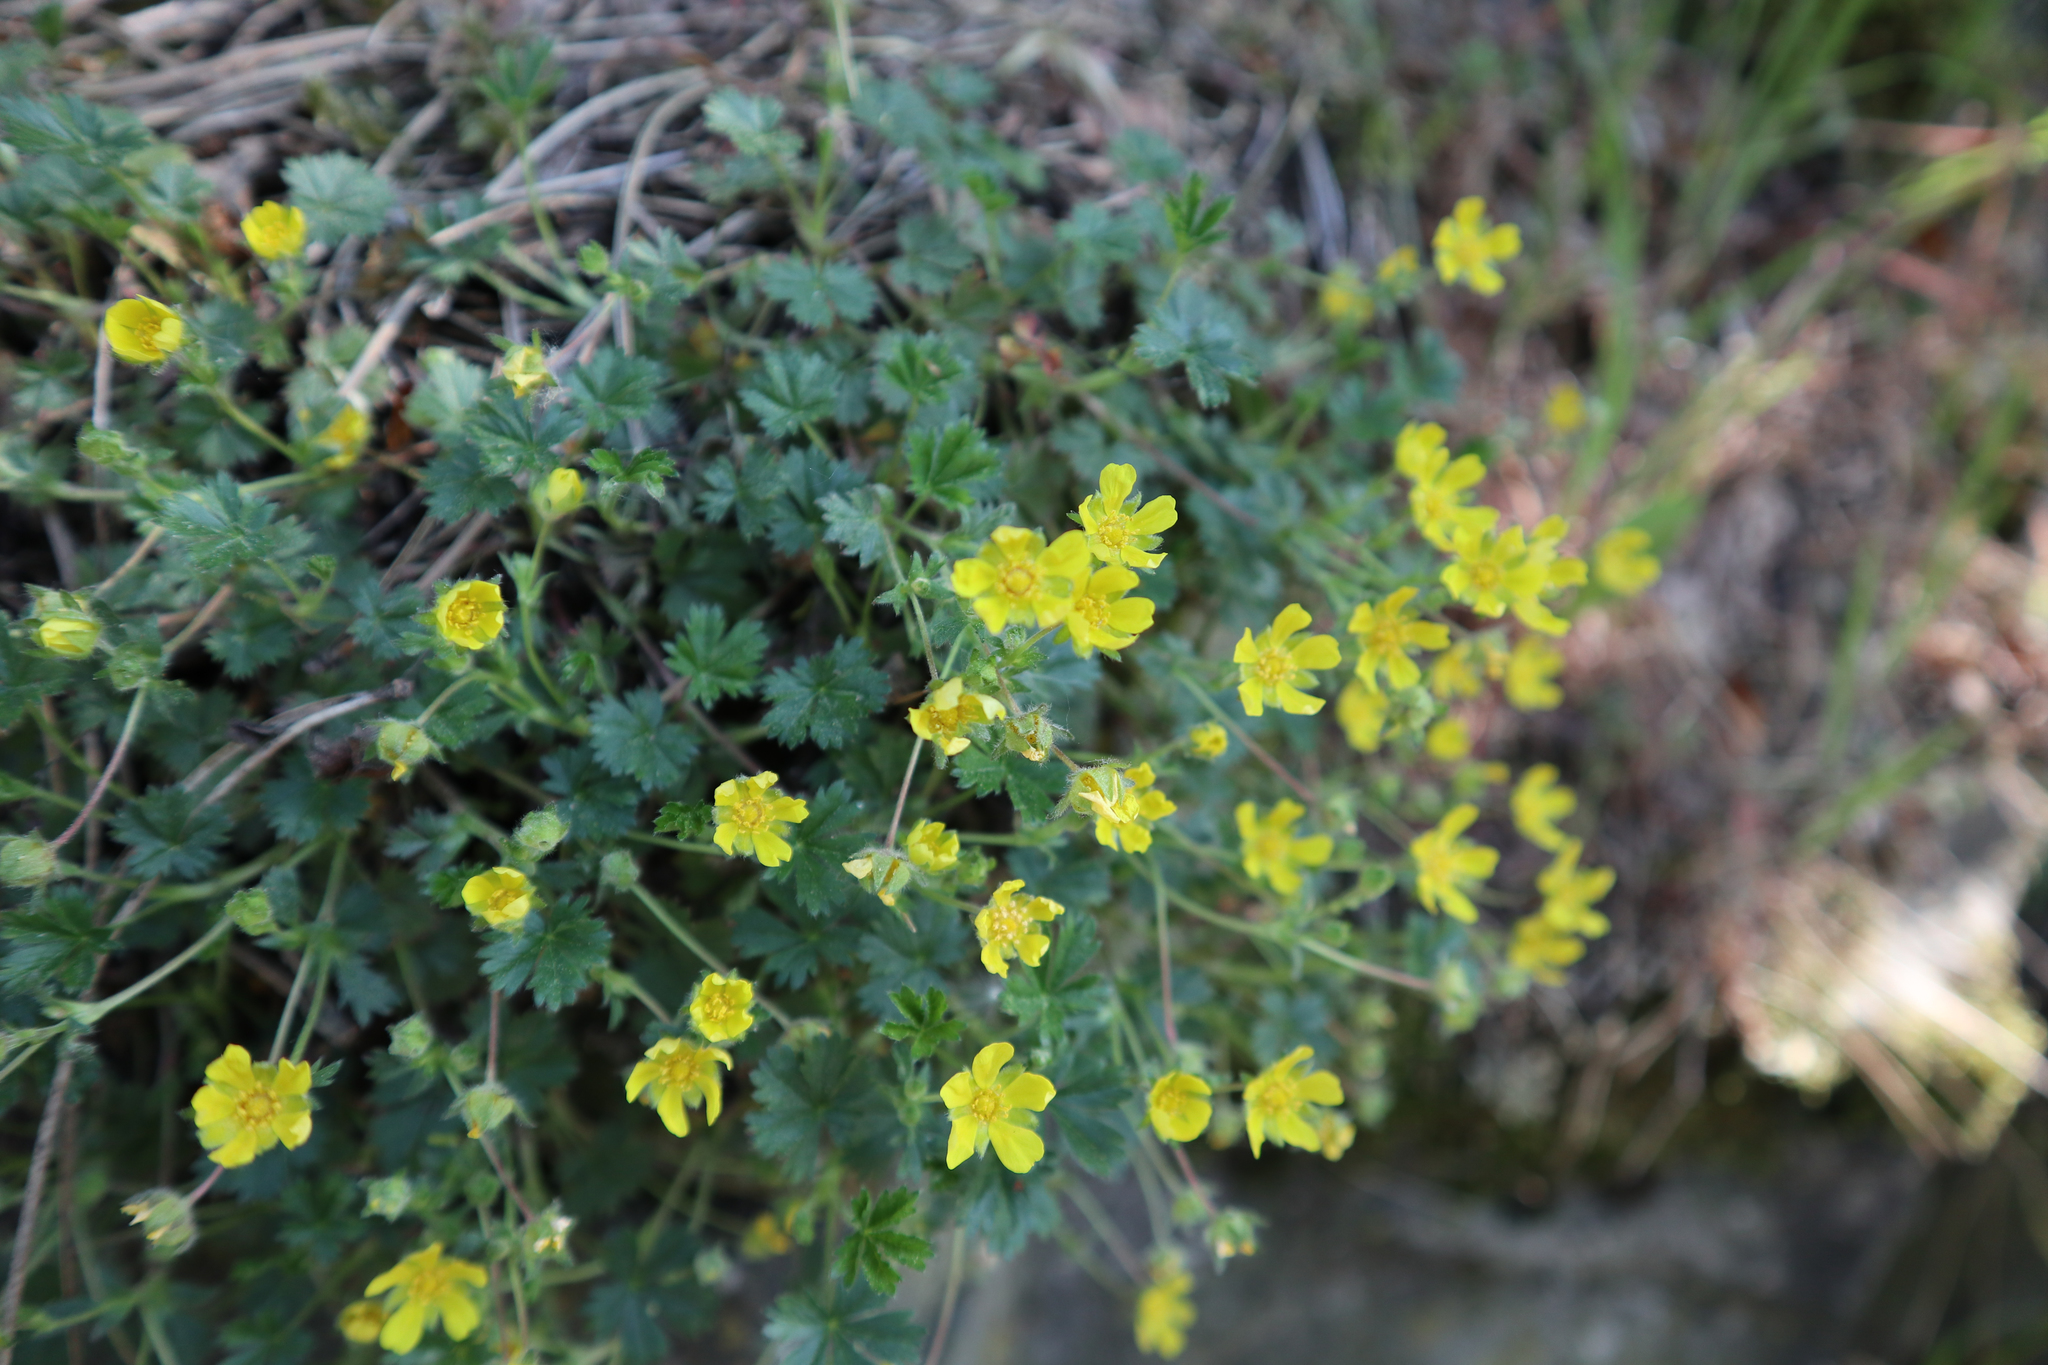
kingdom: Plantae
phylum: Tracheophyta
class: Magnoliopsida
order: Rosales
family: Rosaceae
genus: Potentilla
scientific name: Potentilla verna
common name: Spring cinquefoil
